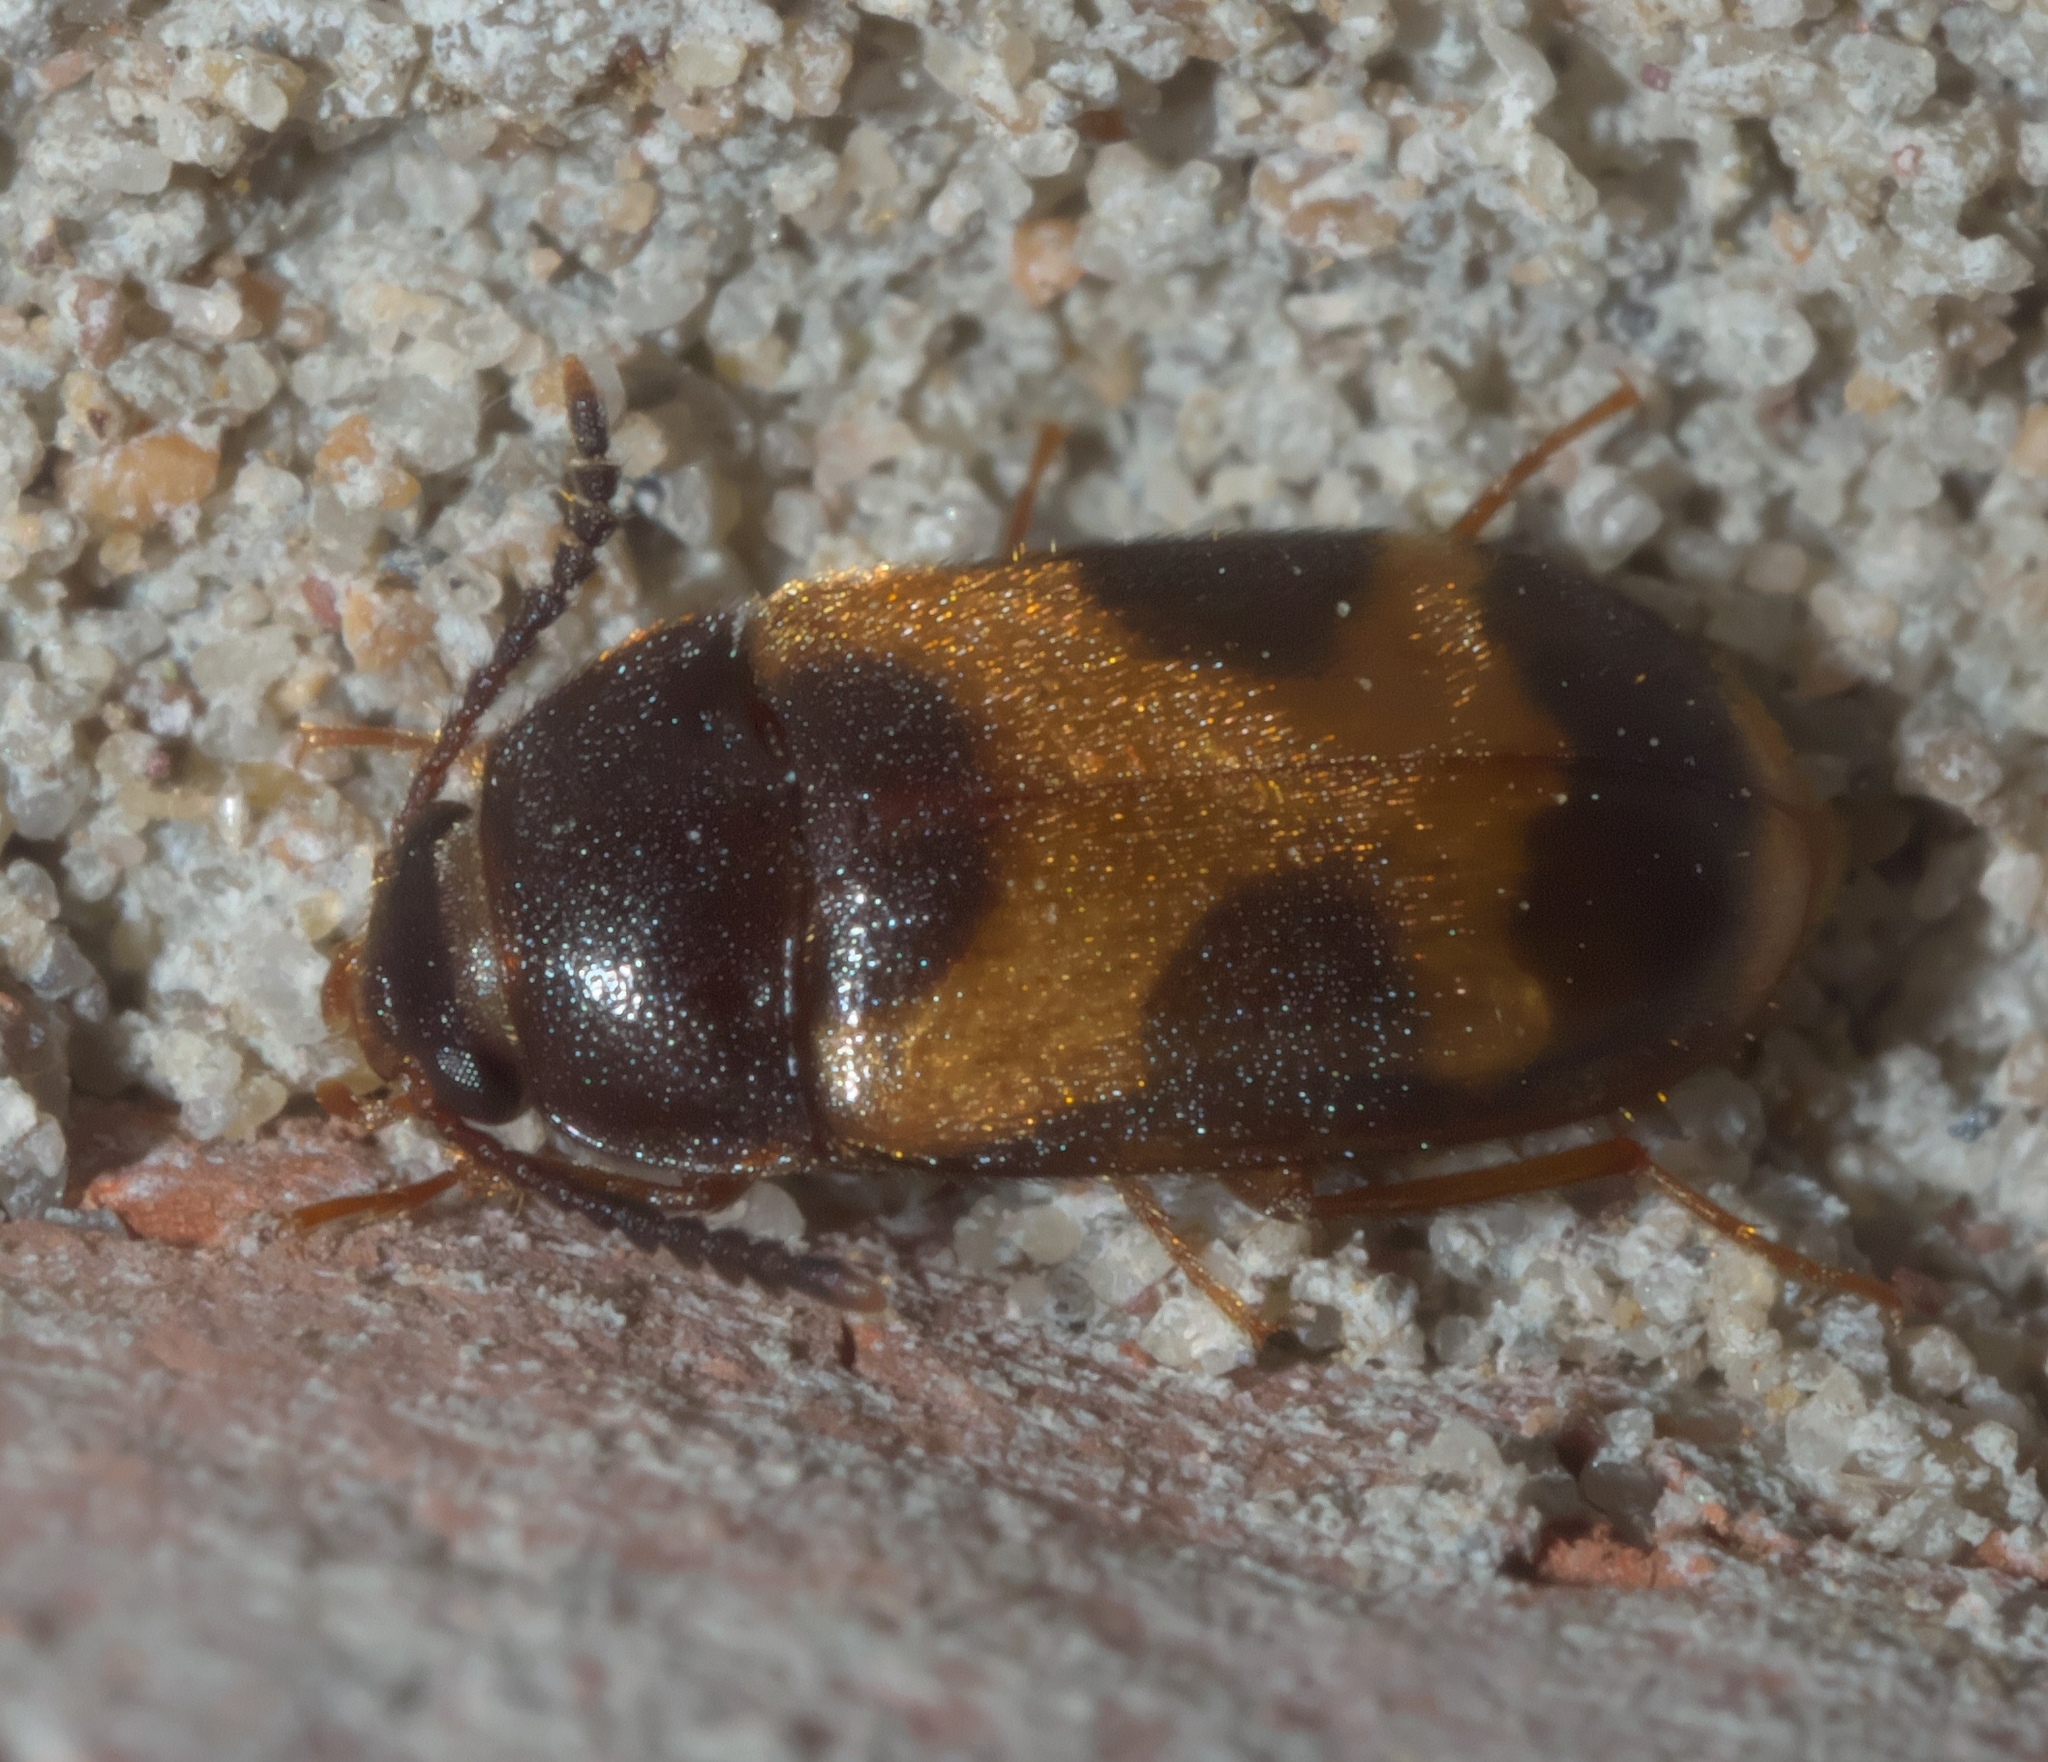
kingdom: Animalia
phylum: Arthropoda
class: Insecta
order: Coleoptera
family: Mycetophagidae
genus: Mycetophagus
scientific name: Mycetophagus punctatus
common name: Hairy fungus beetle
